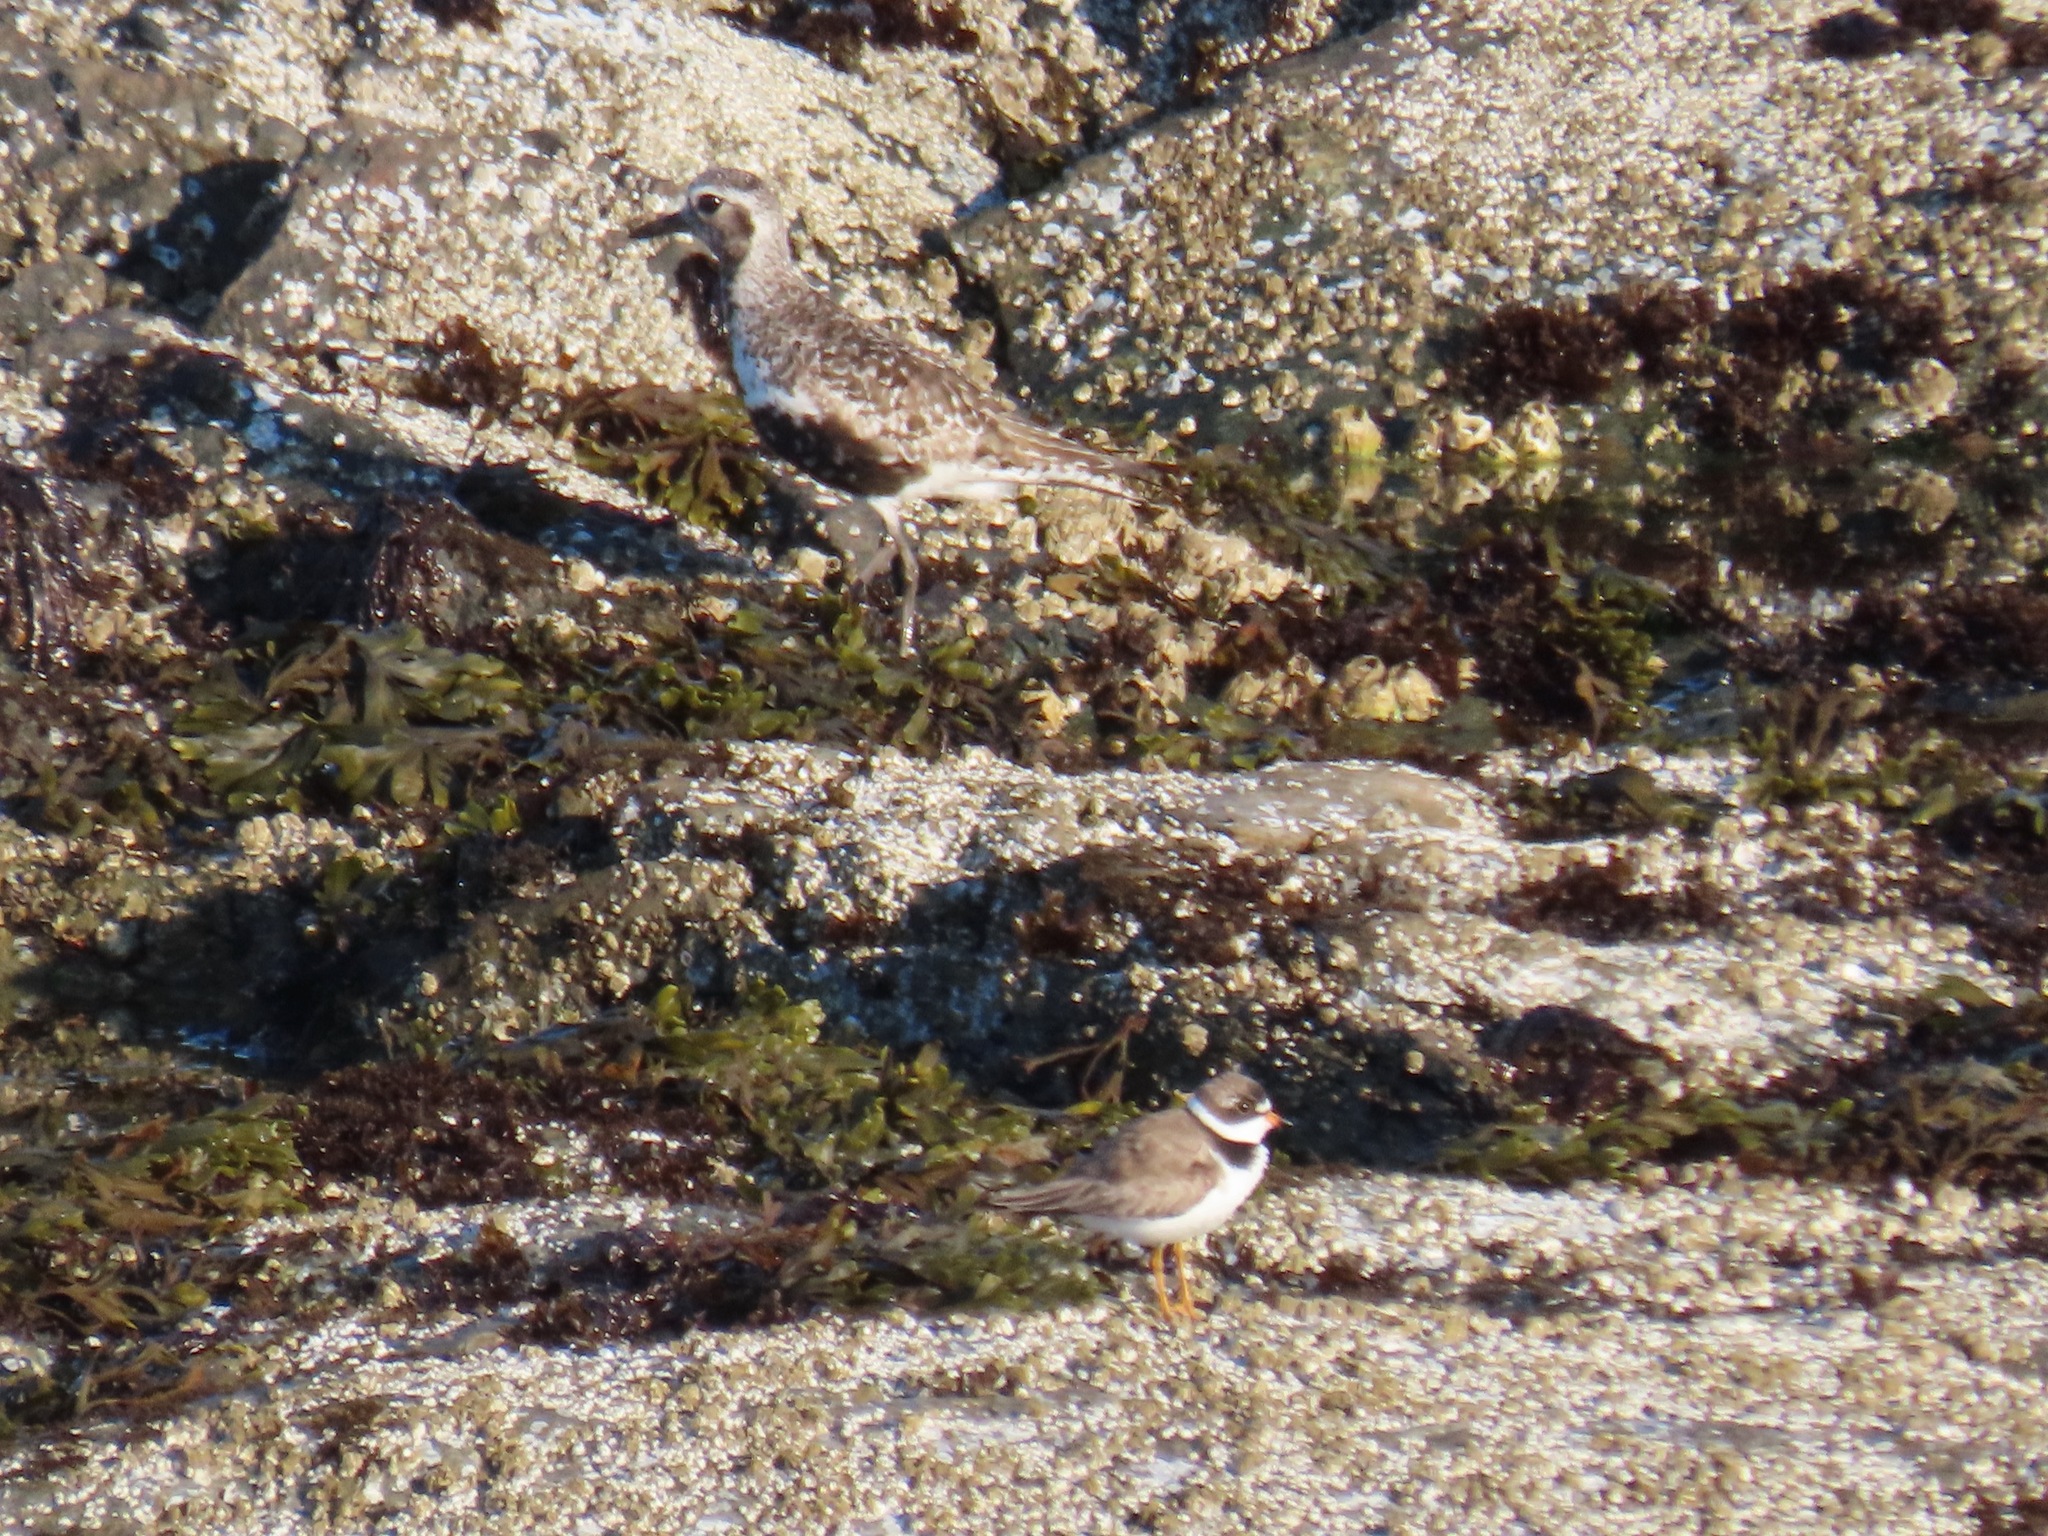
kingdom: Animalia
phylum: Chordata
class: Aves
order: Charadriiformes
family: Charadriidae
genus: Charadrius
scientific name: Charadrius semipalmatus
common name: Semipalmated plover
